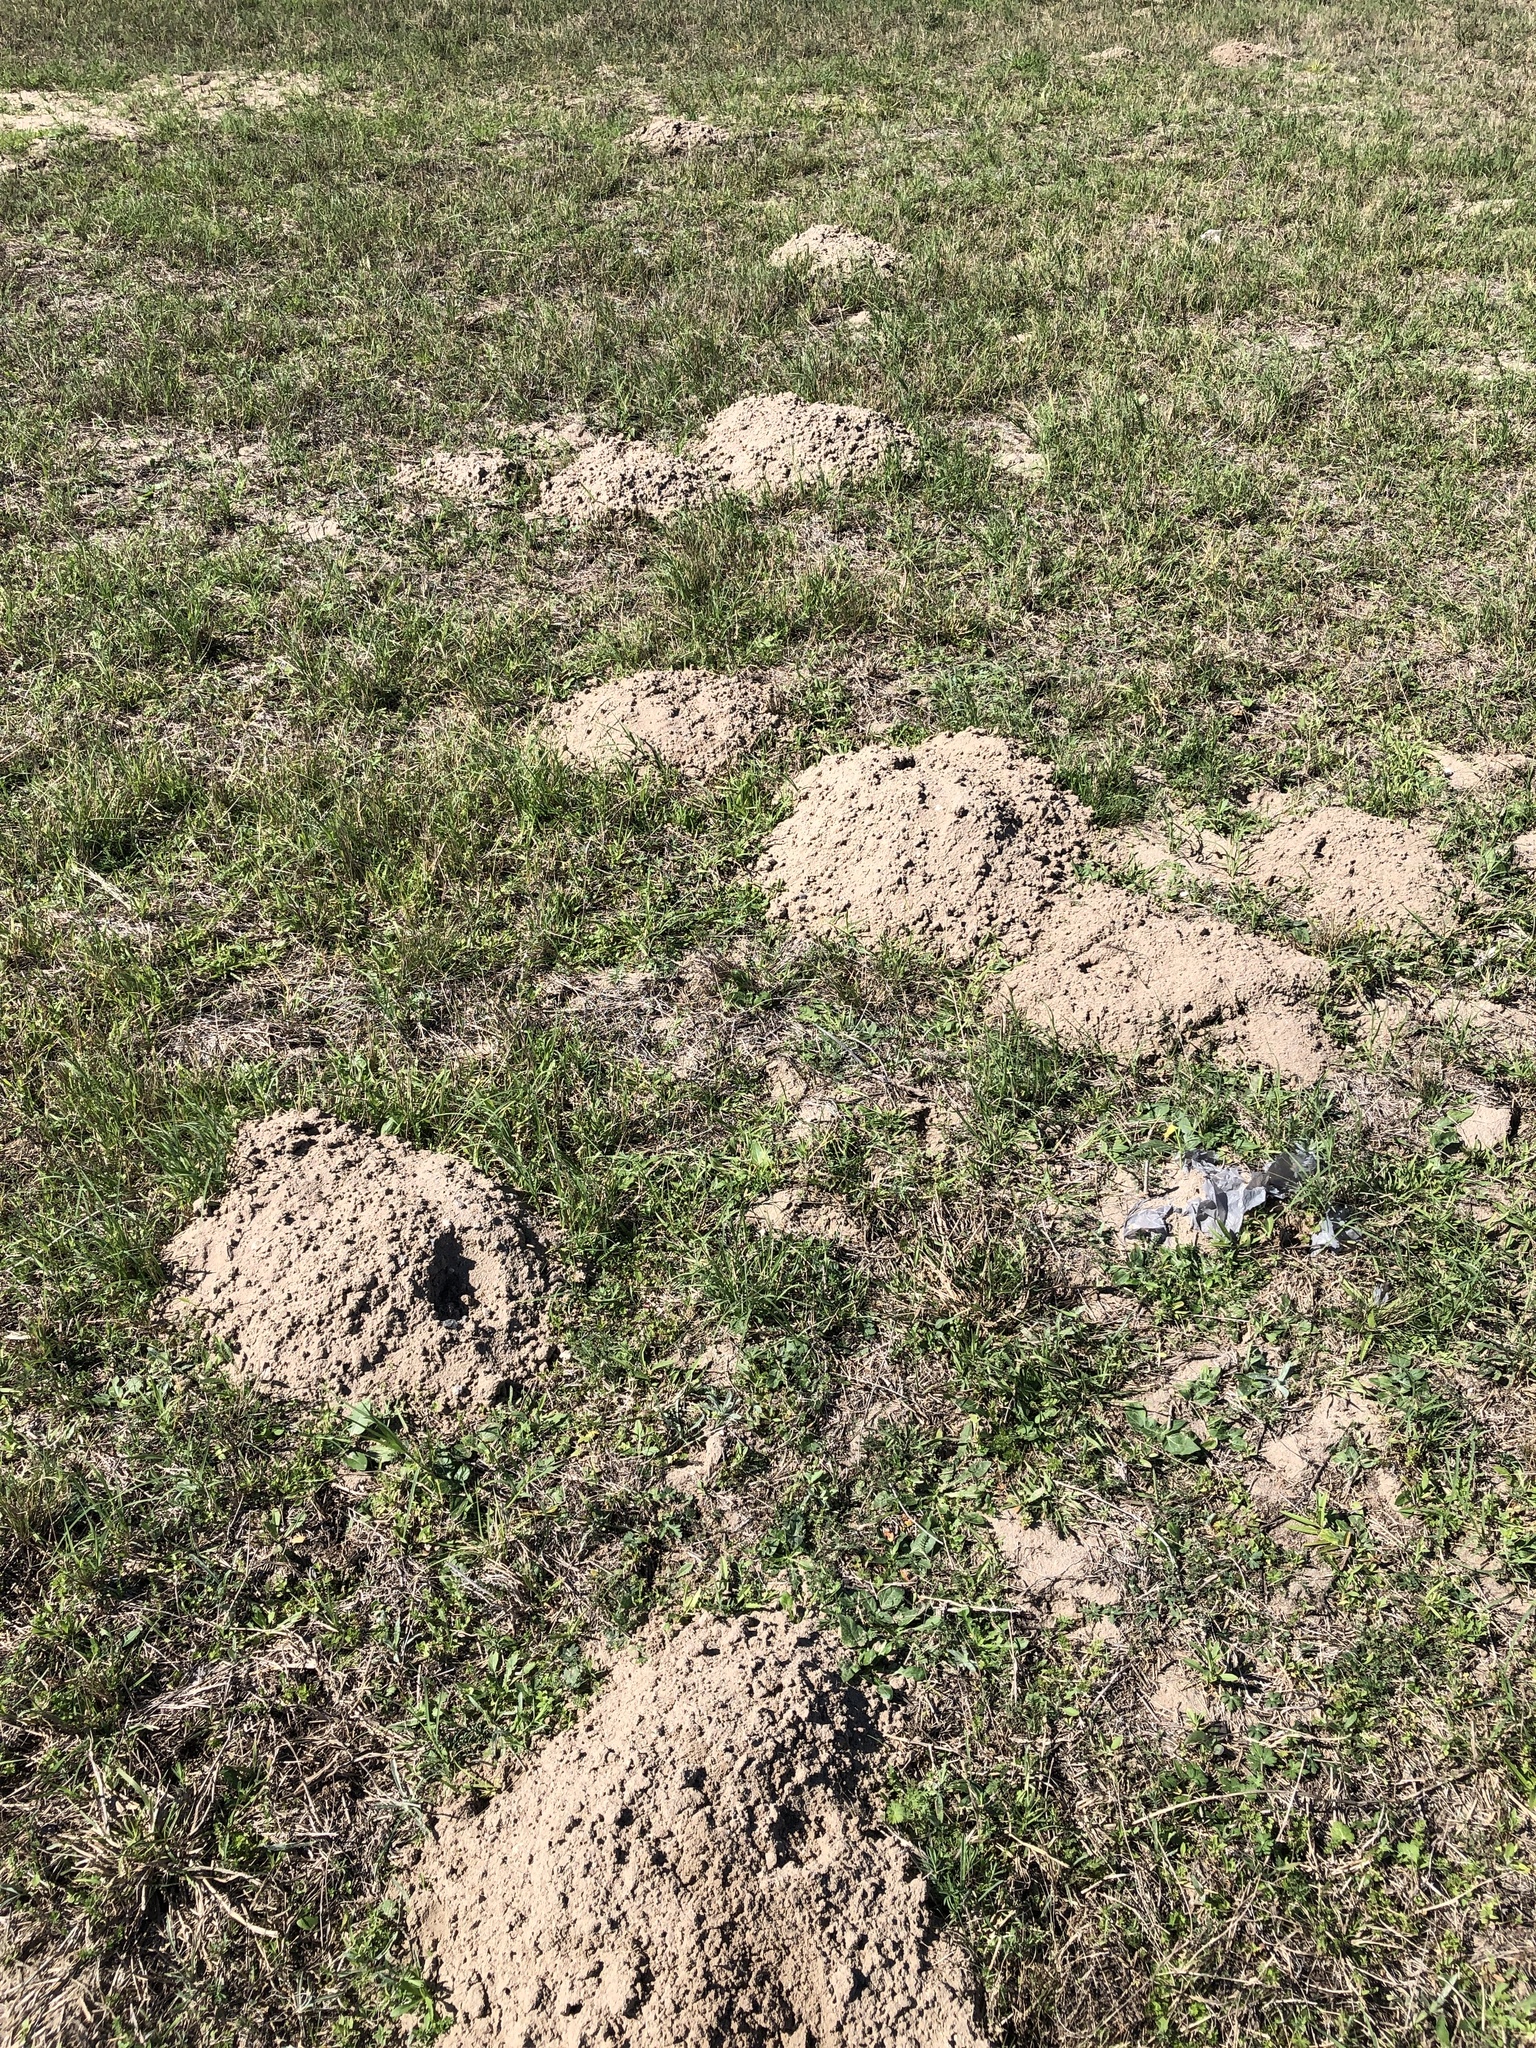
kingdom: Animalia
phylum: Chordata
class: Mammalia
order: Rodentia
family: Geomyidae
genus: Geomys
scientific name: Geomys personatus
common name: Texas pocket gopher
